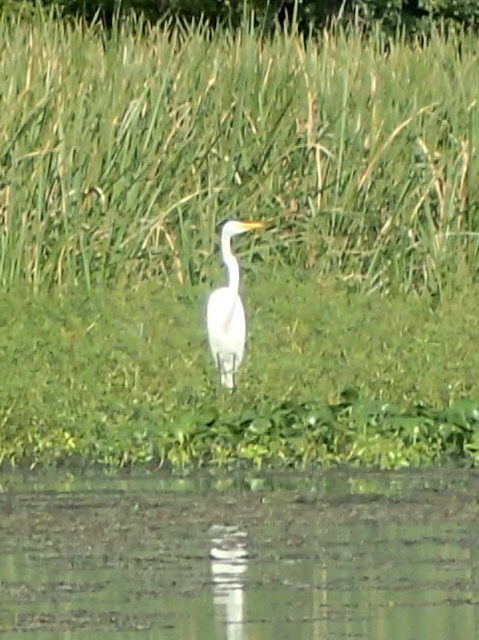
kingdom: Animalia
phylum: Chordata
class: Aves
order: Pelecaniformes
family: Ardeidae
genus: Ardea
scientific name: Ardea alba
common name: Great egret
